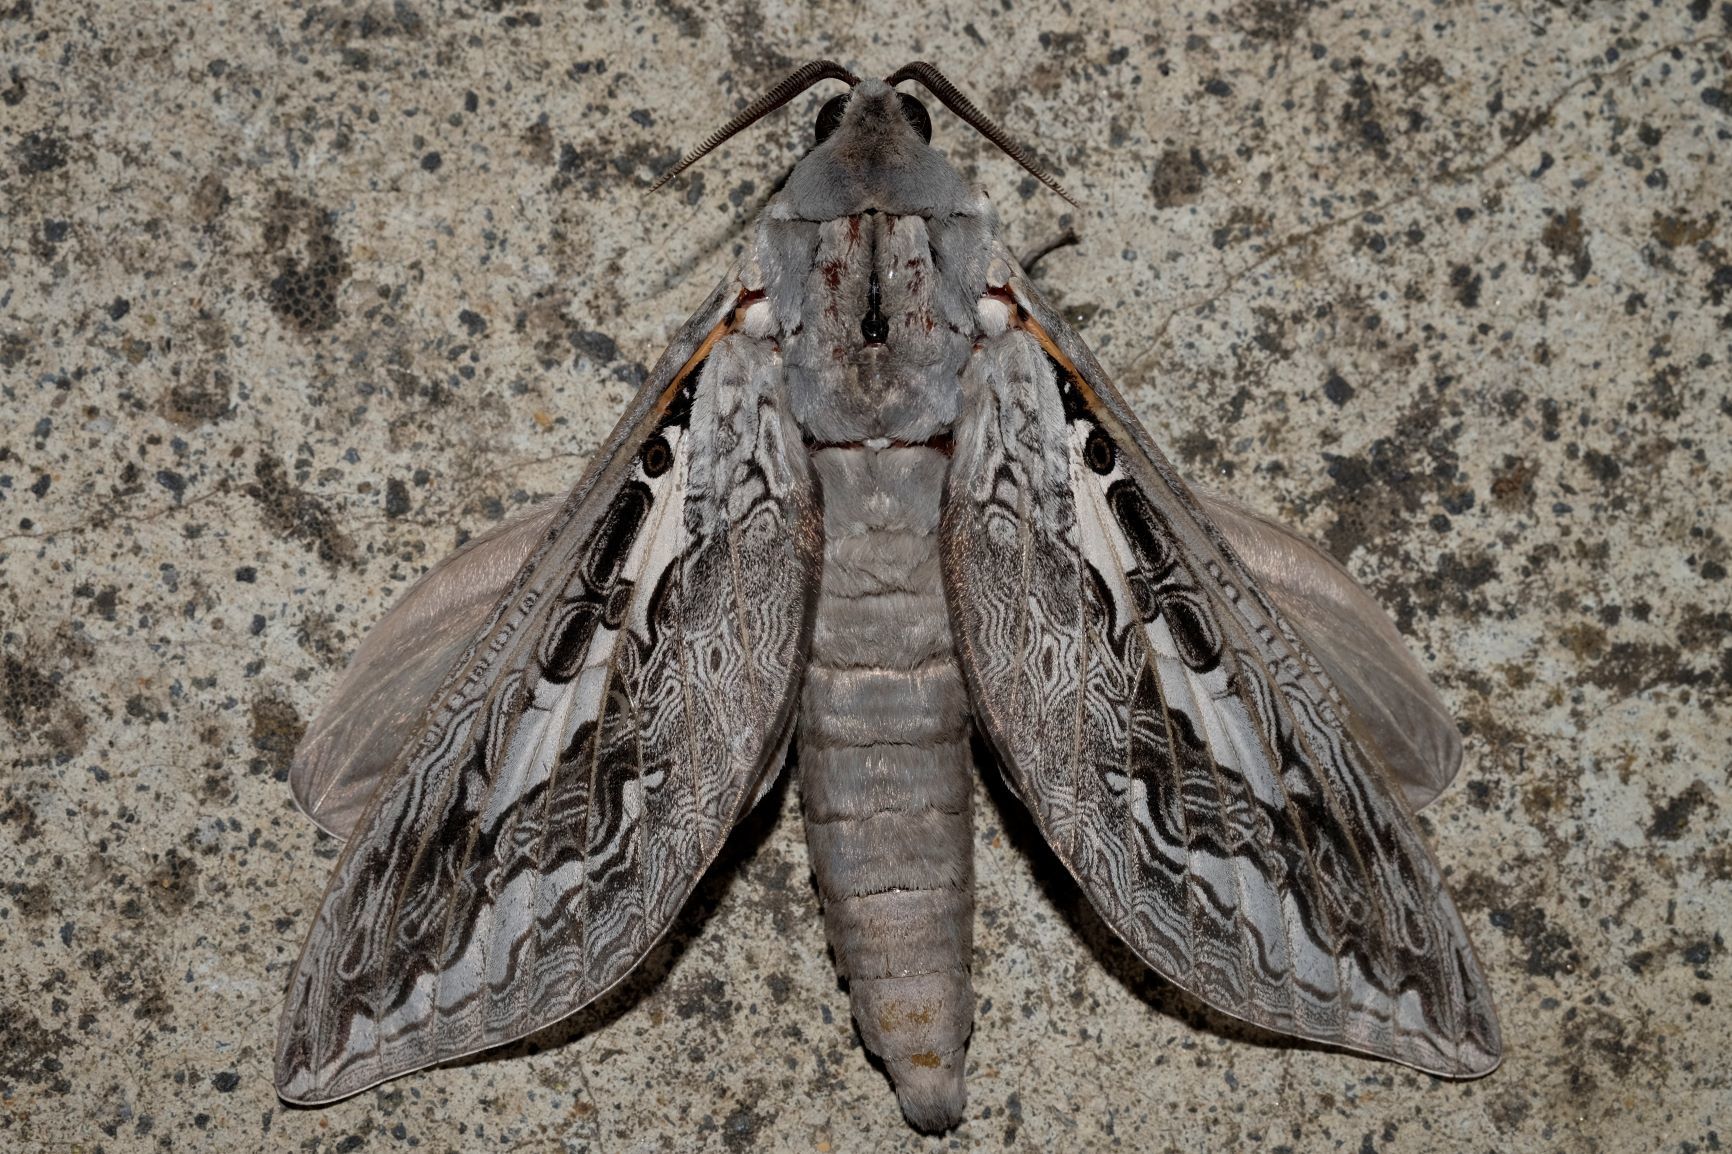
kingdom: Animalia
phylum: Arthropoda
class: Insecta
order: Lepidoptera
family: Hepialidae
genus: Abantiades
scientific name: Abantiades marcidus
